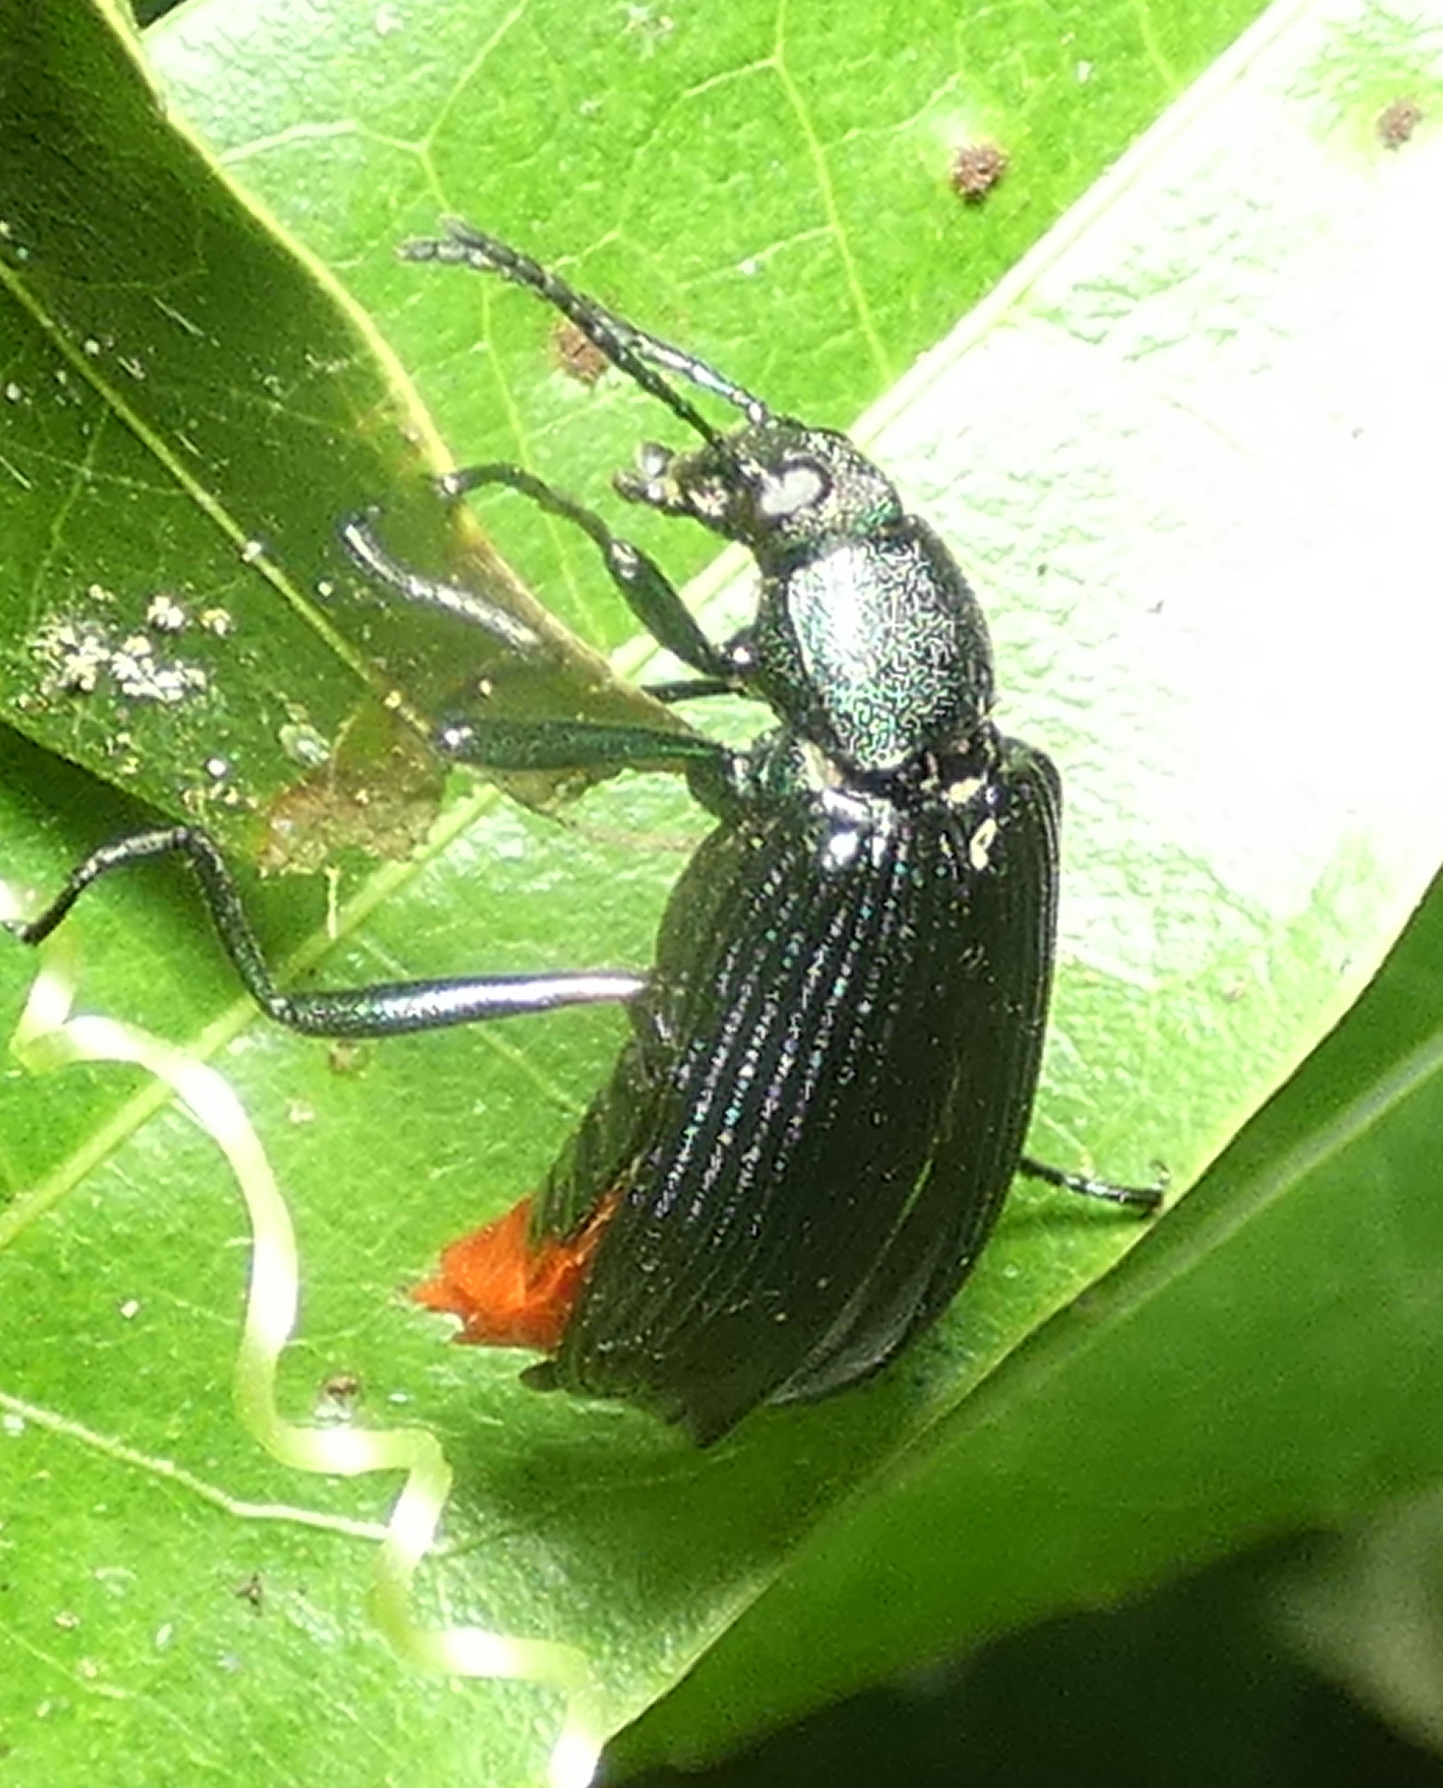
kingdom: Animalia
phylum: Arthropoda
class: Insecta
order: Coleoptera
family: Tenebrionidae
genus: Strongylium
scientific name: Strongylium
